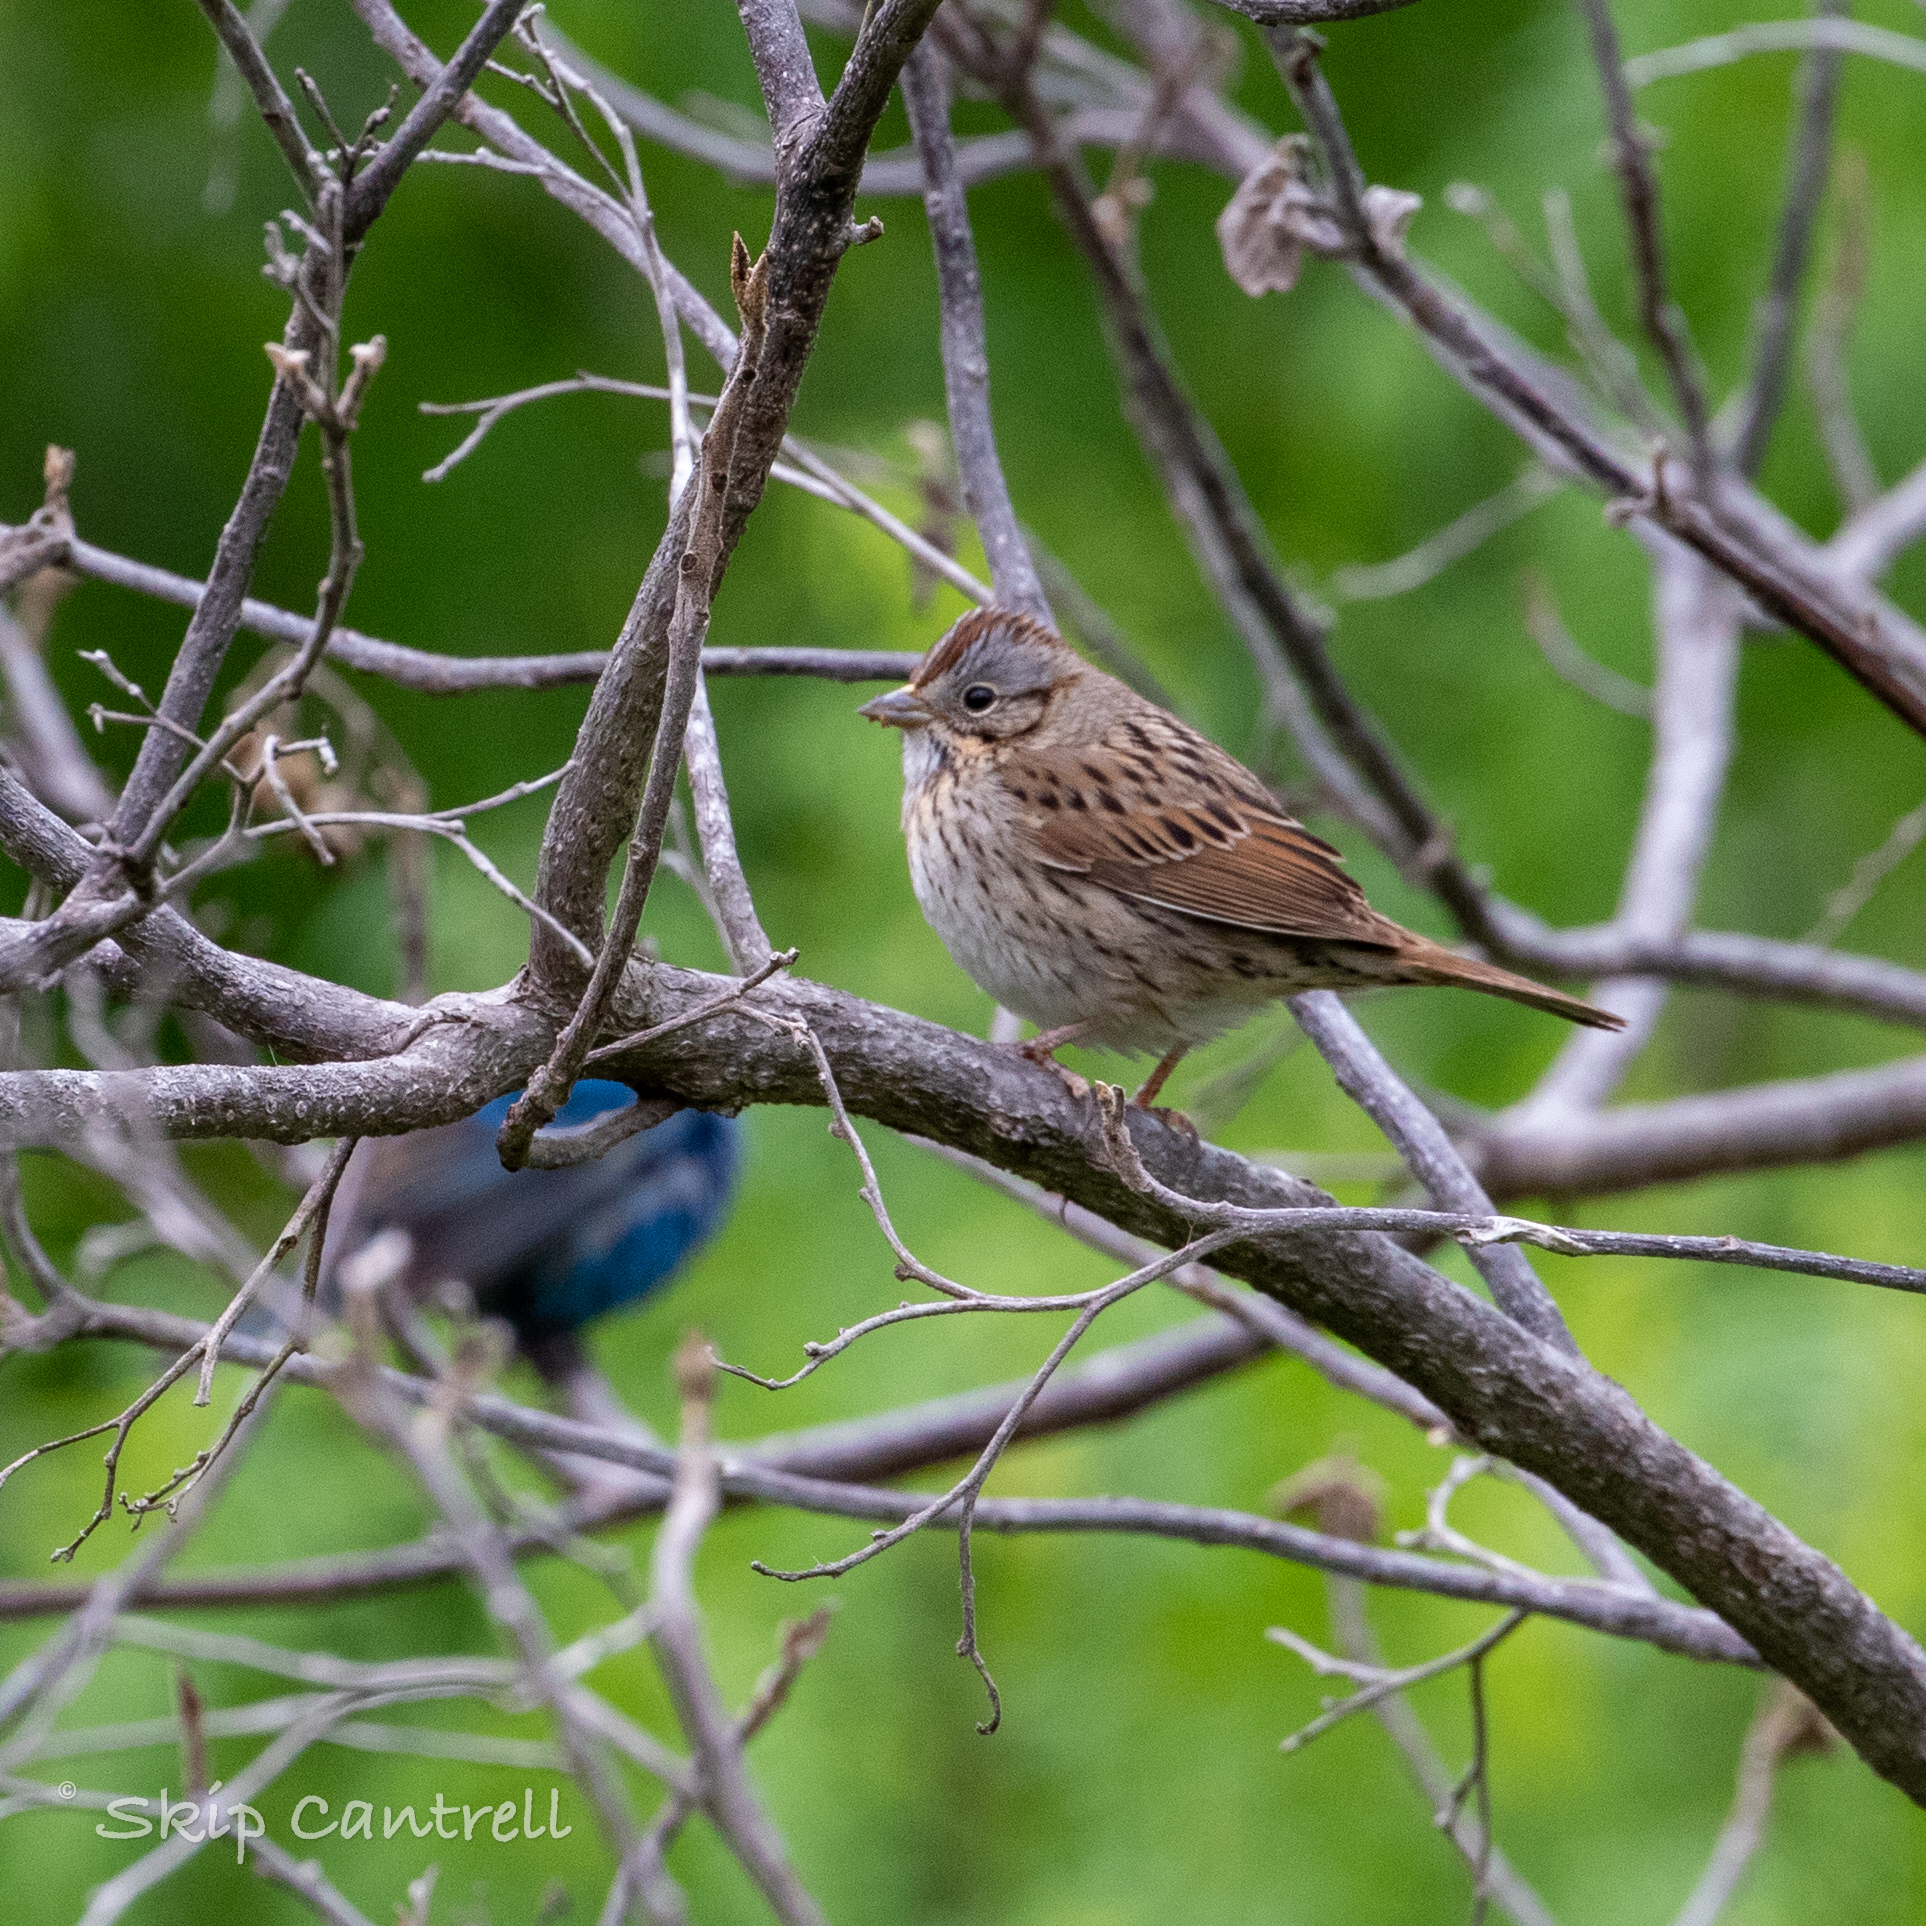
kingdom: Animalia
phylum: Chordata
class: Aves
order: Passeriformes
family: Passerellidae
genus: Melospiza
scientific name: Melospiza lincolnii
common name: Lincoln's sparrow
